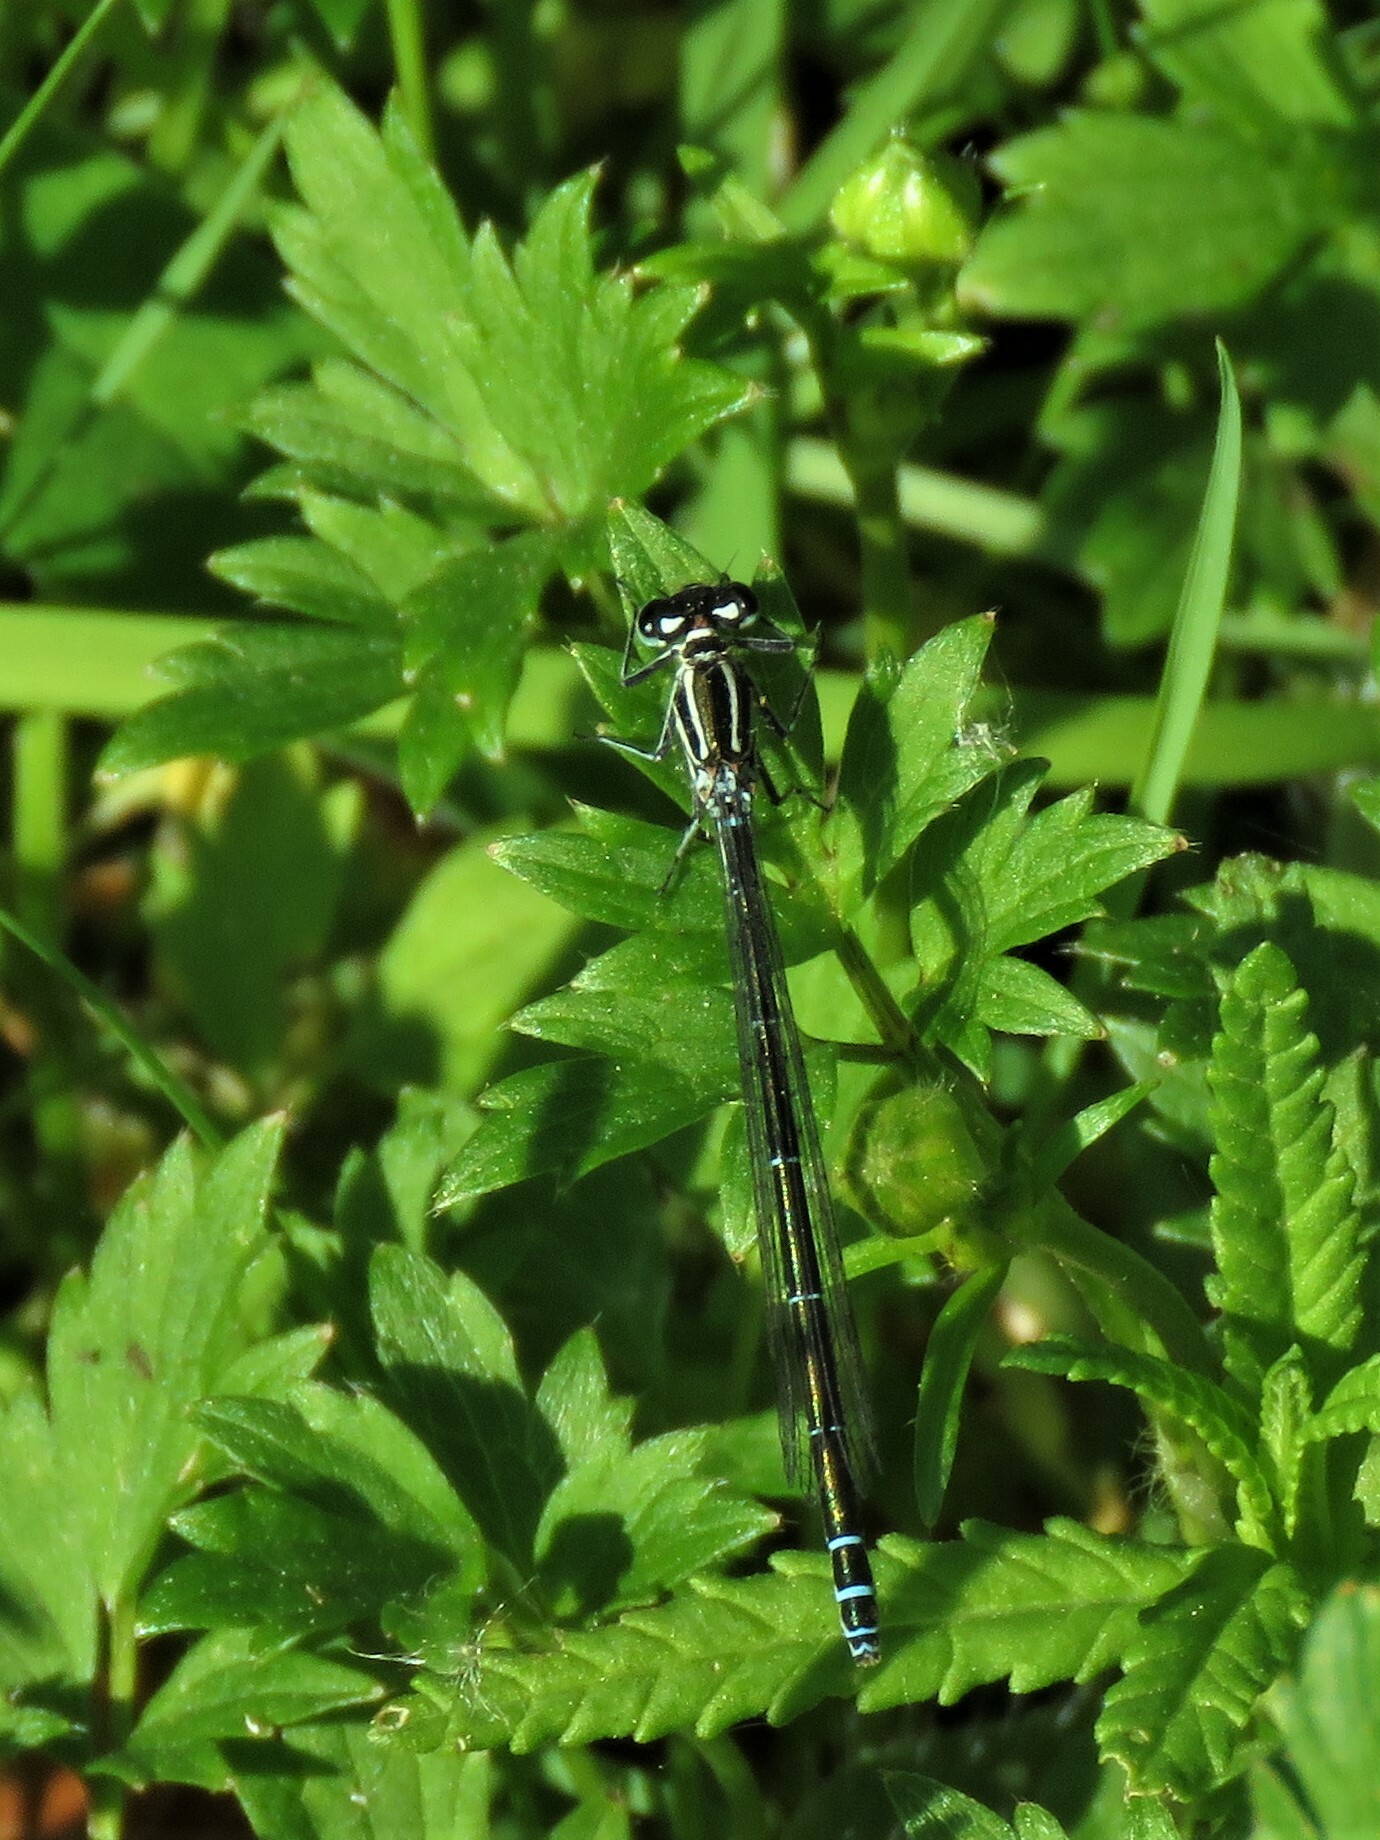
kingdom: Animalia
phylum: Arthropoda
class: Insecta
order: Odonata
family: Coenagrionidae
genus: Coenagrion
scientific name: Coenagrion puella
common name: Azure damselfly
